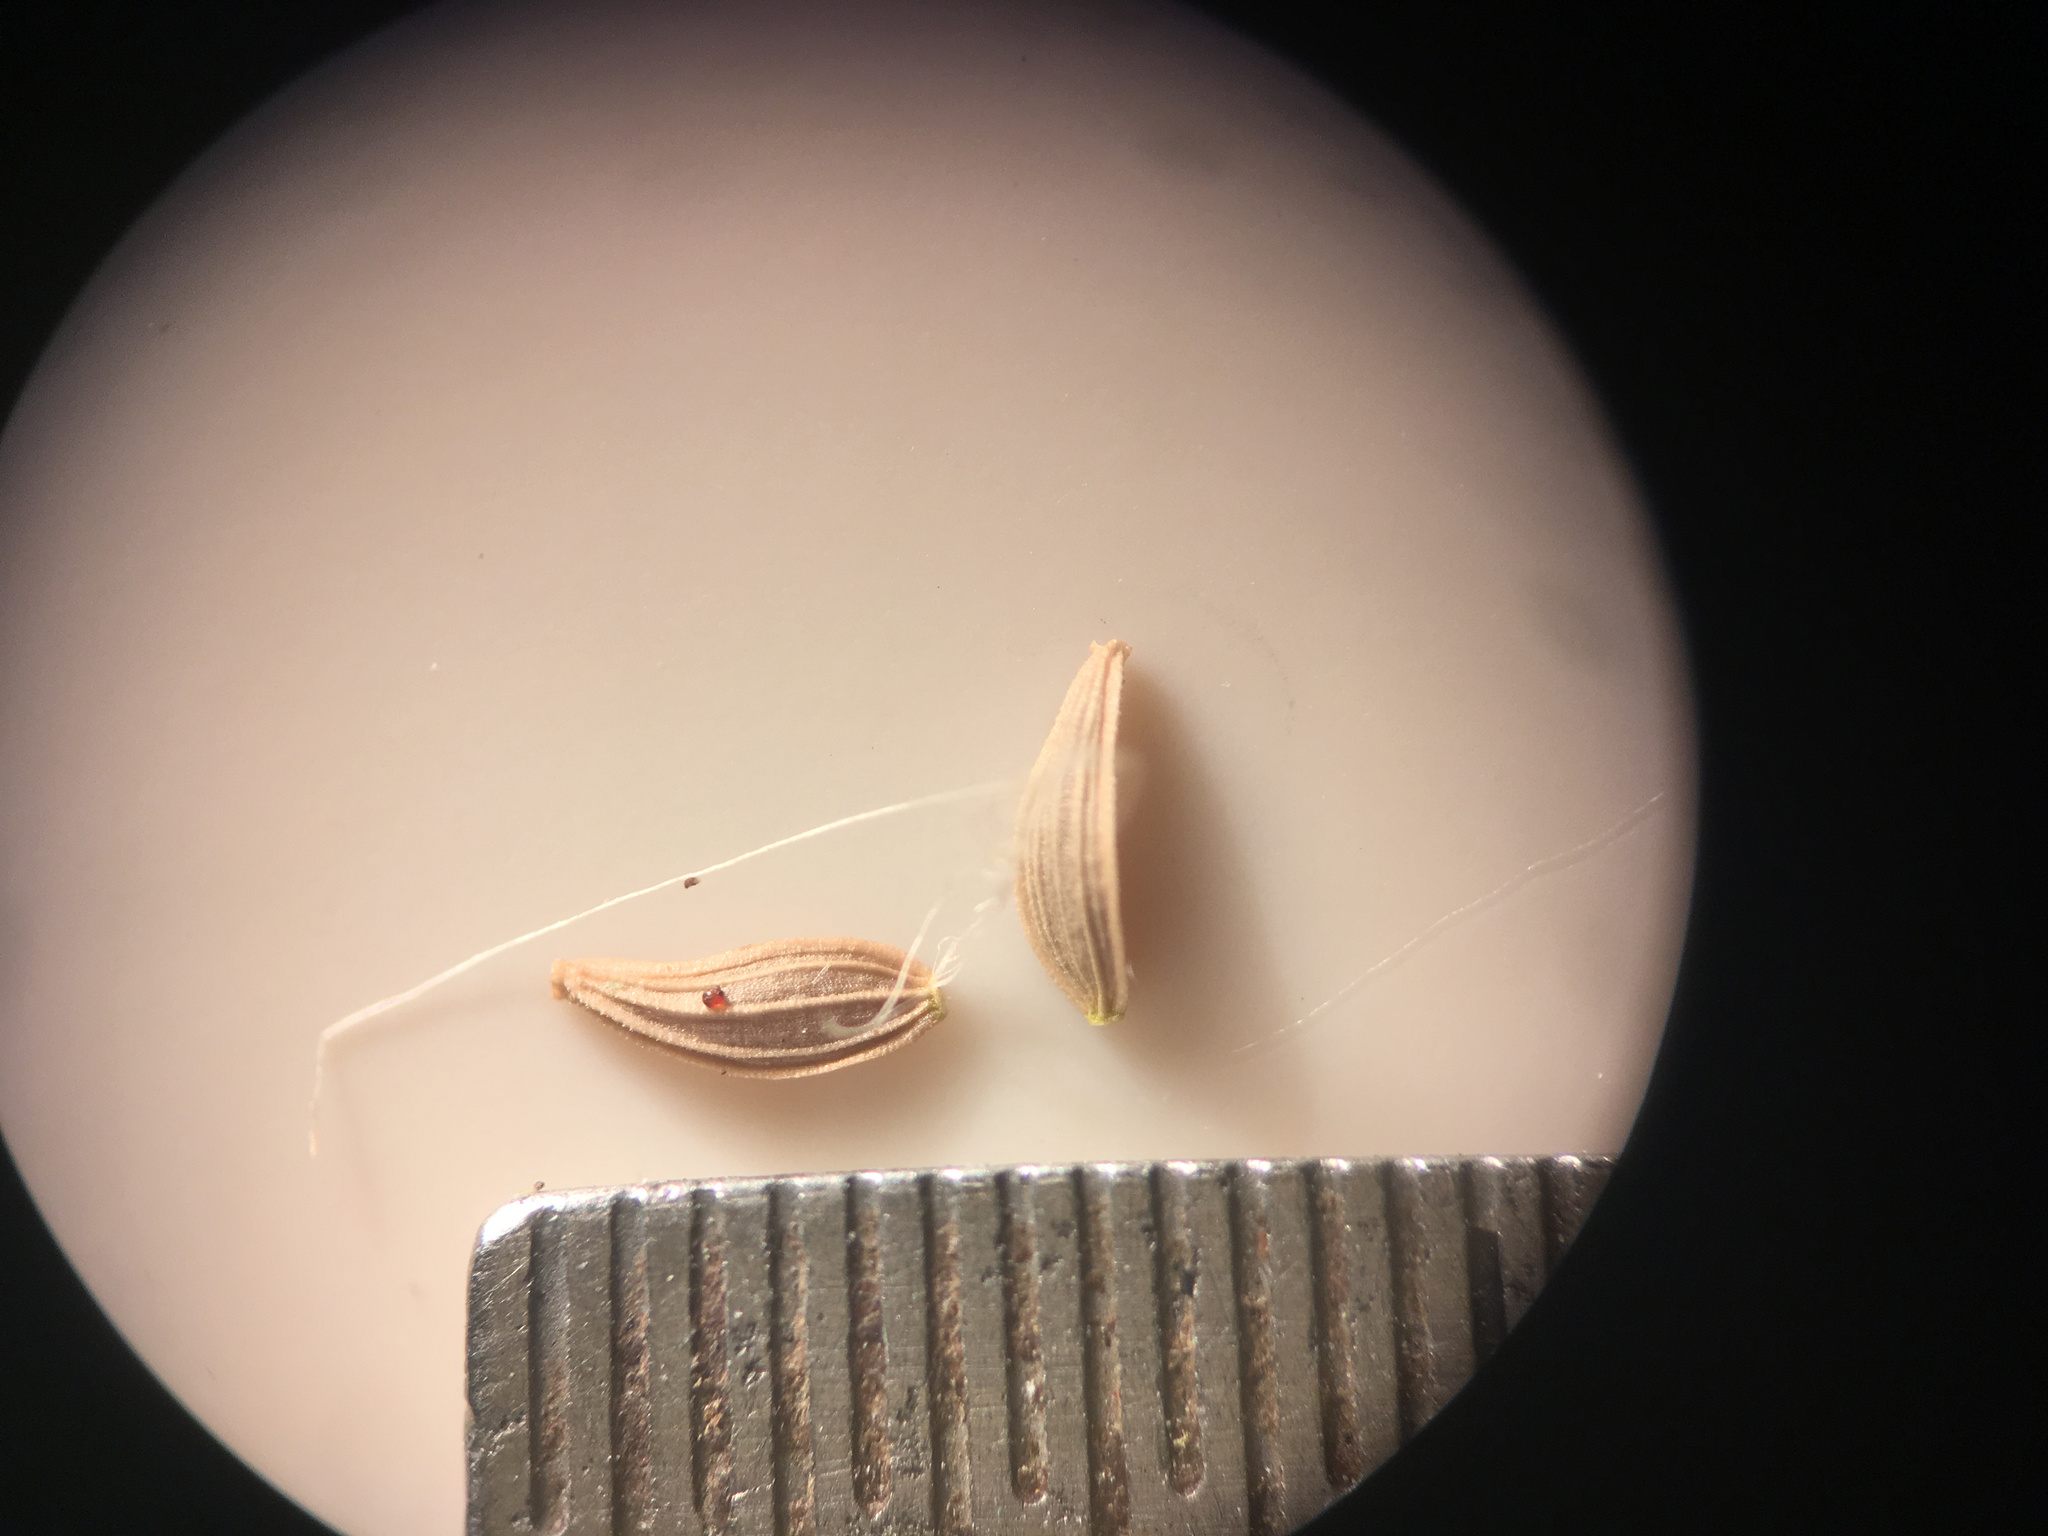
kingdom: Plantae
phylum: Tracheophyta
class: Magnoliopsida
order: Asterales
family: Asteraceae
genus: Sonchus
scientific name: Sonchus asper
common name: Prickly sow-thistle
